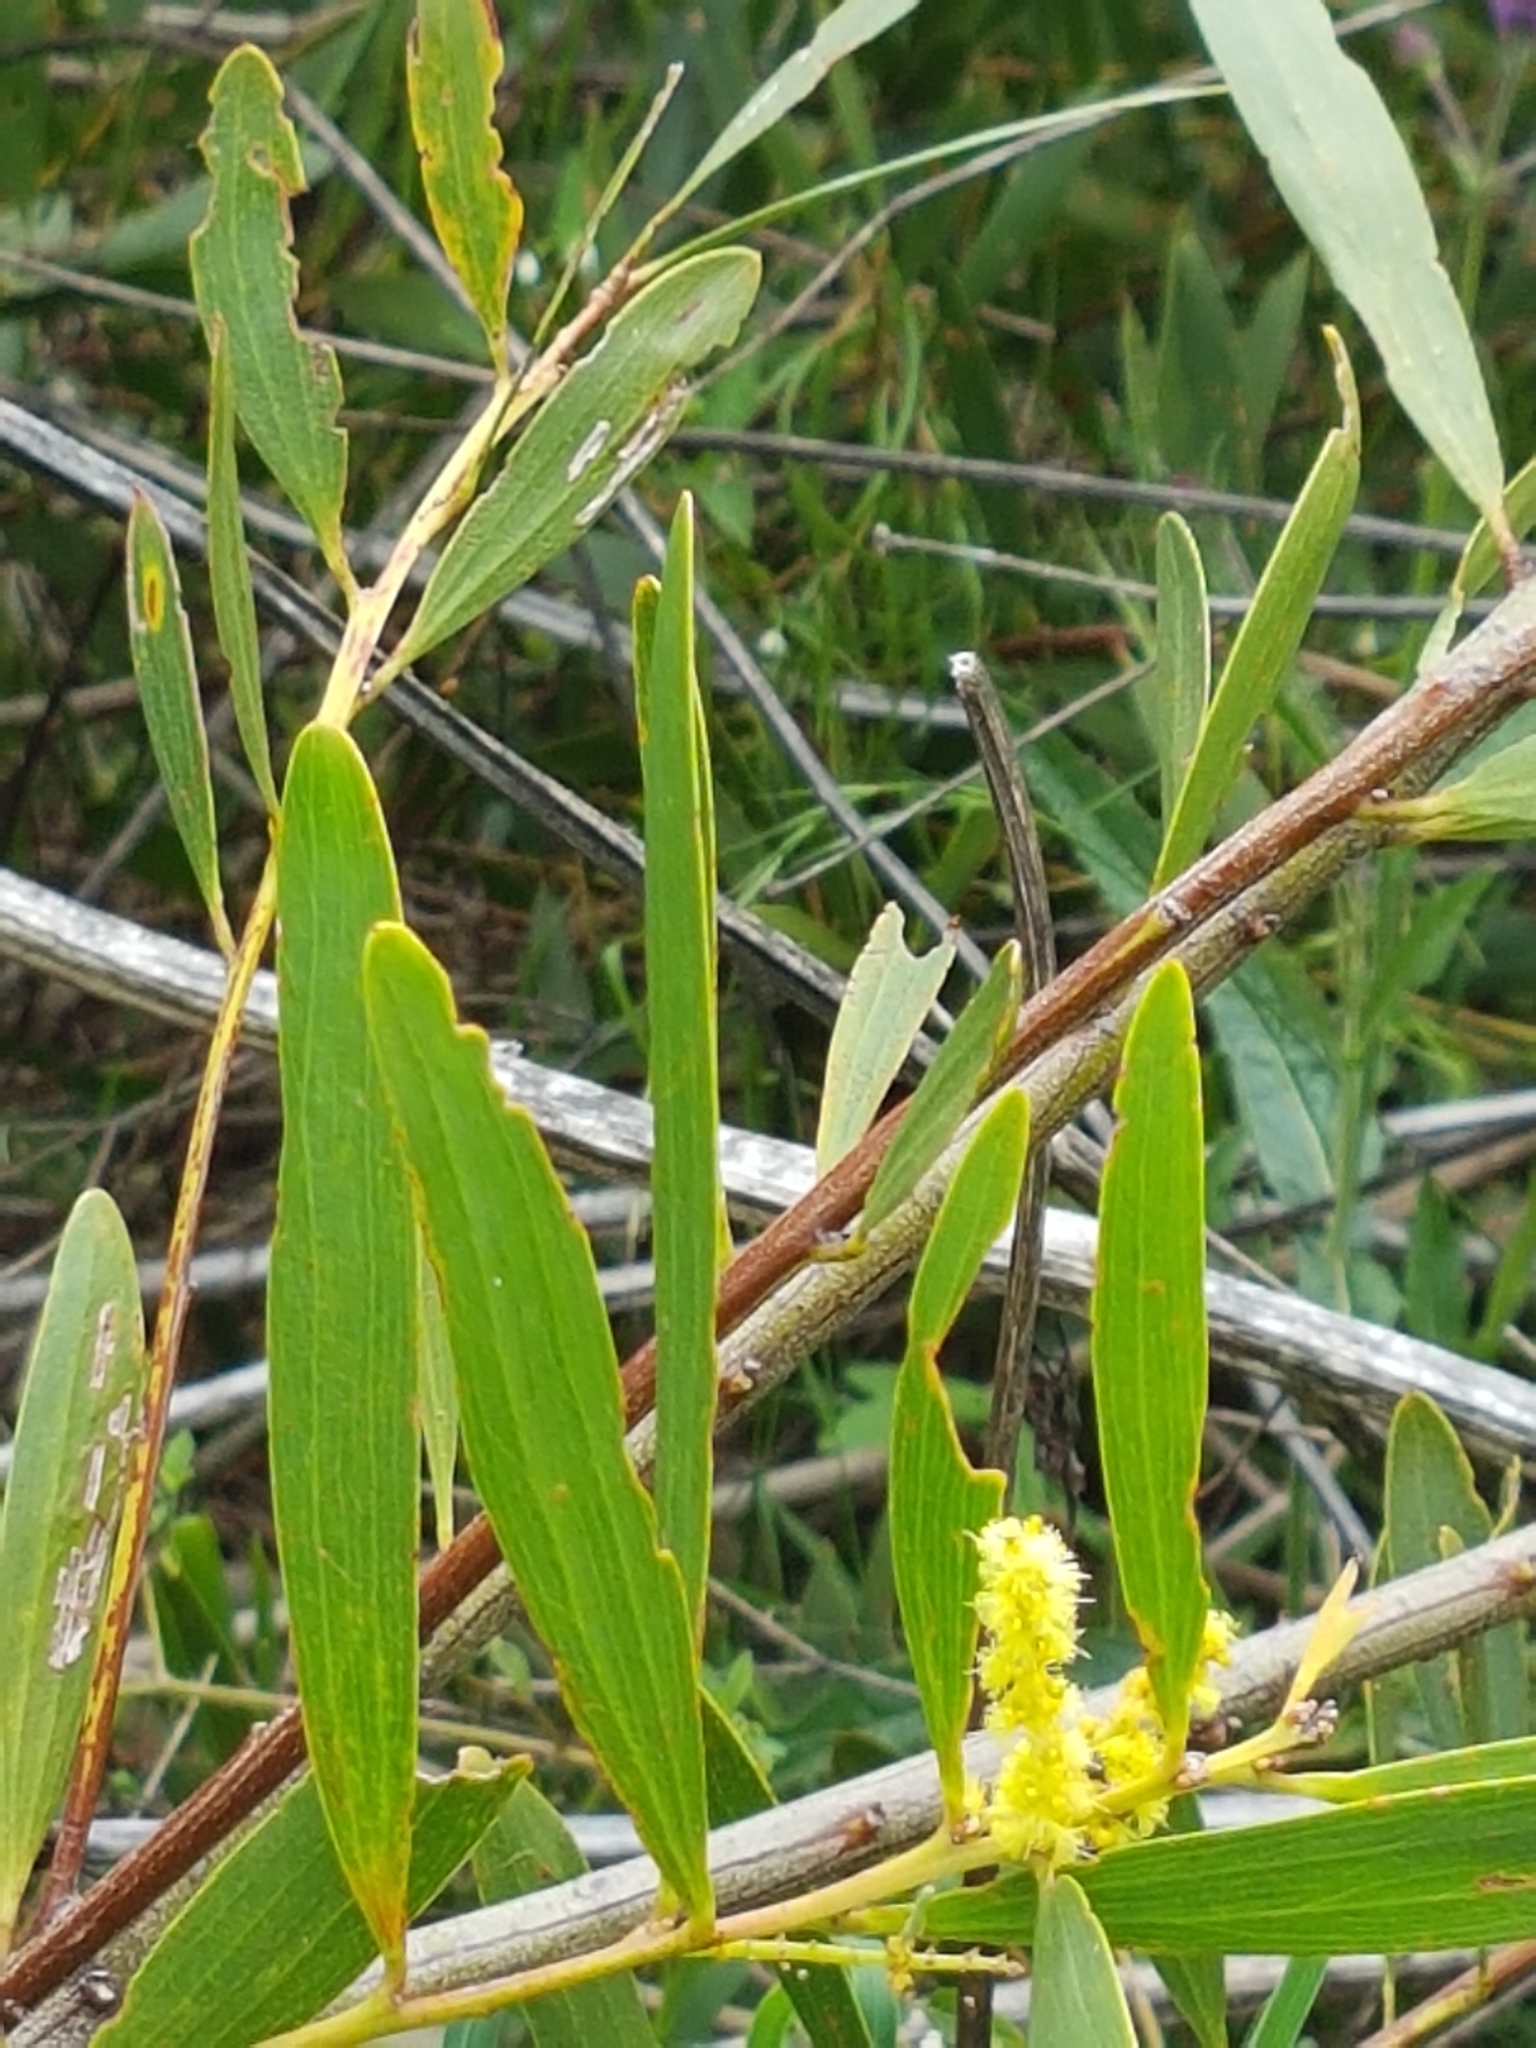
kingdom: Plantae
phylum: Tracheophyta
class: Magnoliopsida
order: Fabales
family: Fabaceae
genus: Acacia
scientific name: Acacia longifolia
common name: Sydney golden wattle
